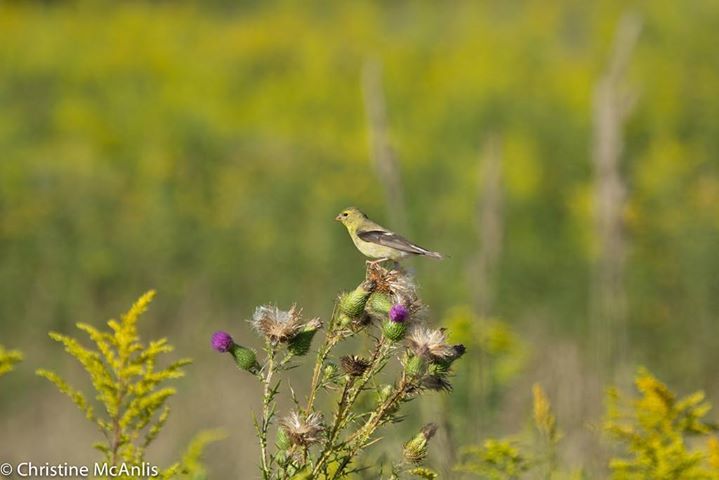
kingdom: Animalia
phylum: Chordata
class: Aves
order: Passeriformes
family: Fringillidae
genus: Spinus
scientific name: Spinus tristis
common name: American goldfinch
